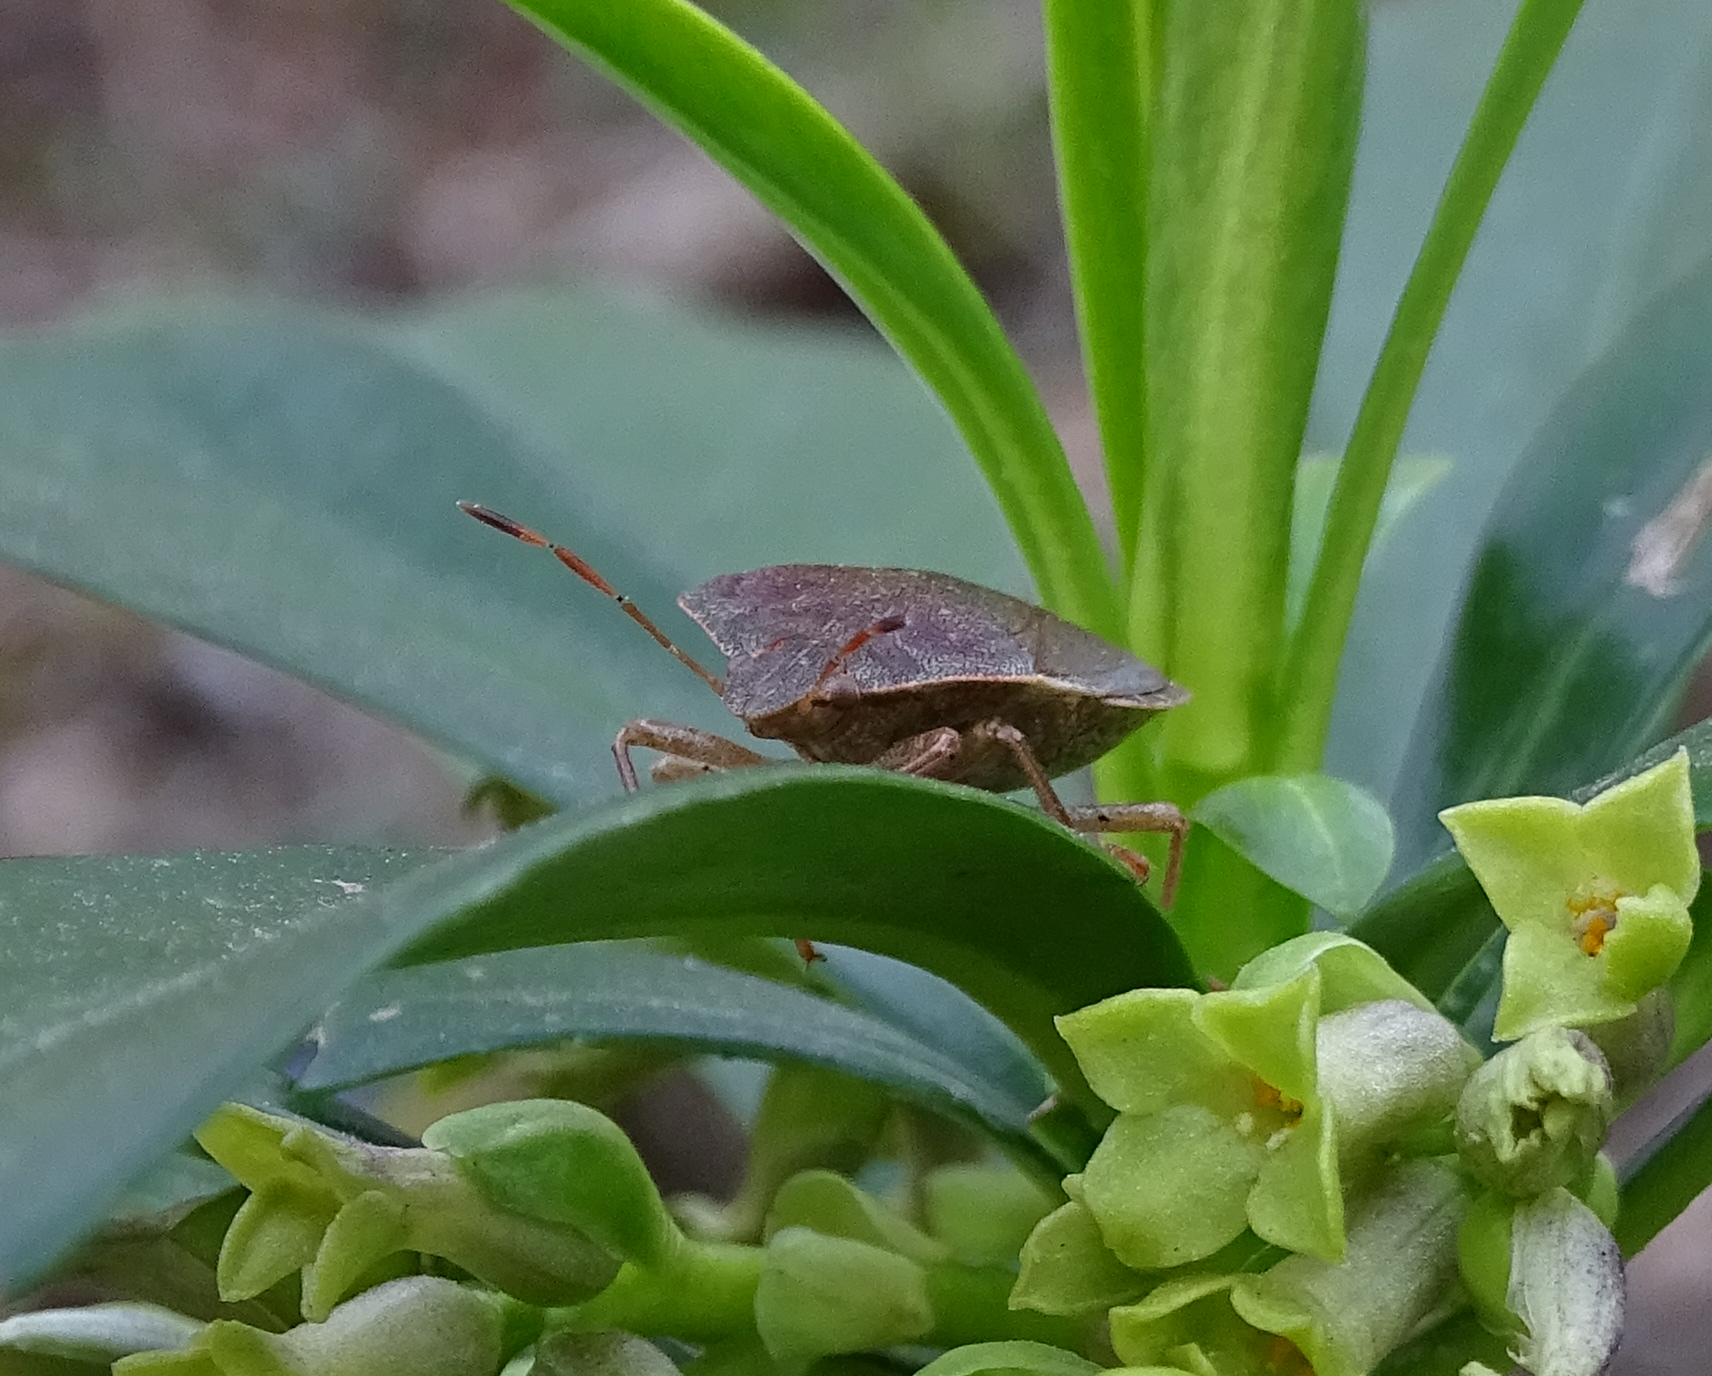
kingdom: Animalia
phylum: Arthropoda
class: Insecta
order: Hemiptera
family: Pentatomidae
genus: Palomena
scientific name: Palomena prasina
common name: Green shieldbug
